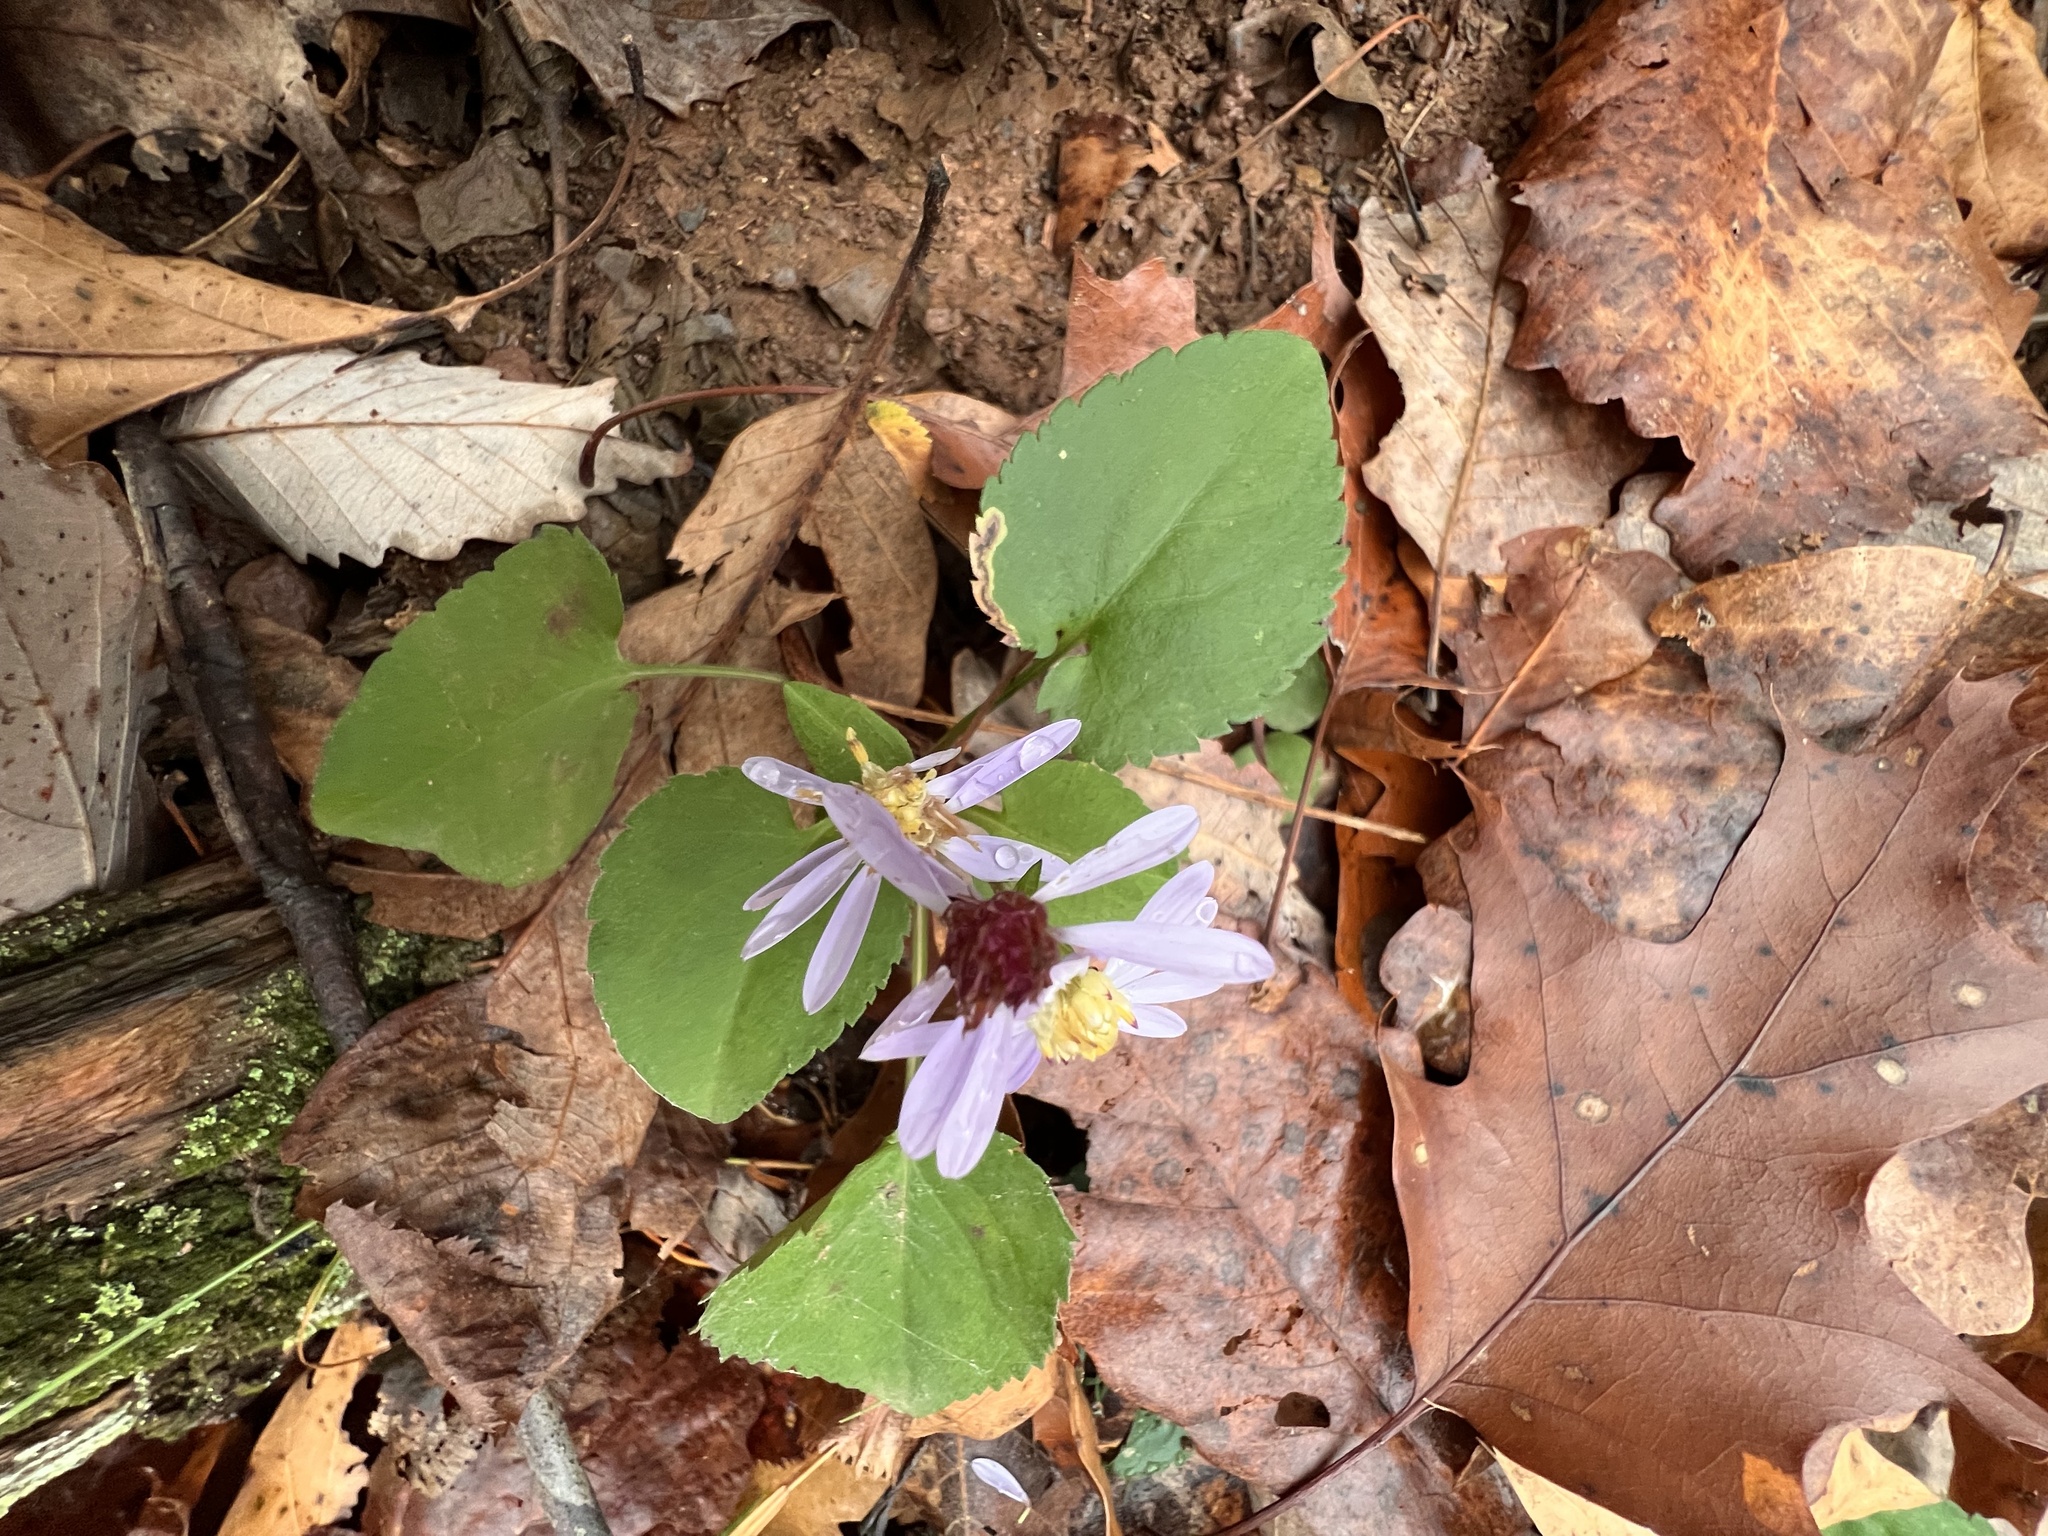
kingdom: Plantae
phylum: Tracheophyta
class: Magnoliopsida
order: Asterales
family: Asteraceae
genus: Symphyotrichum
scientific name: Symphyotrichum cordifolium
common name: Beeweed
